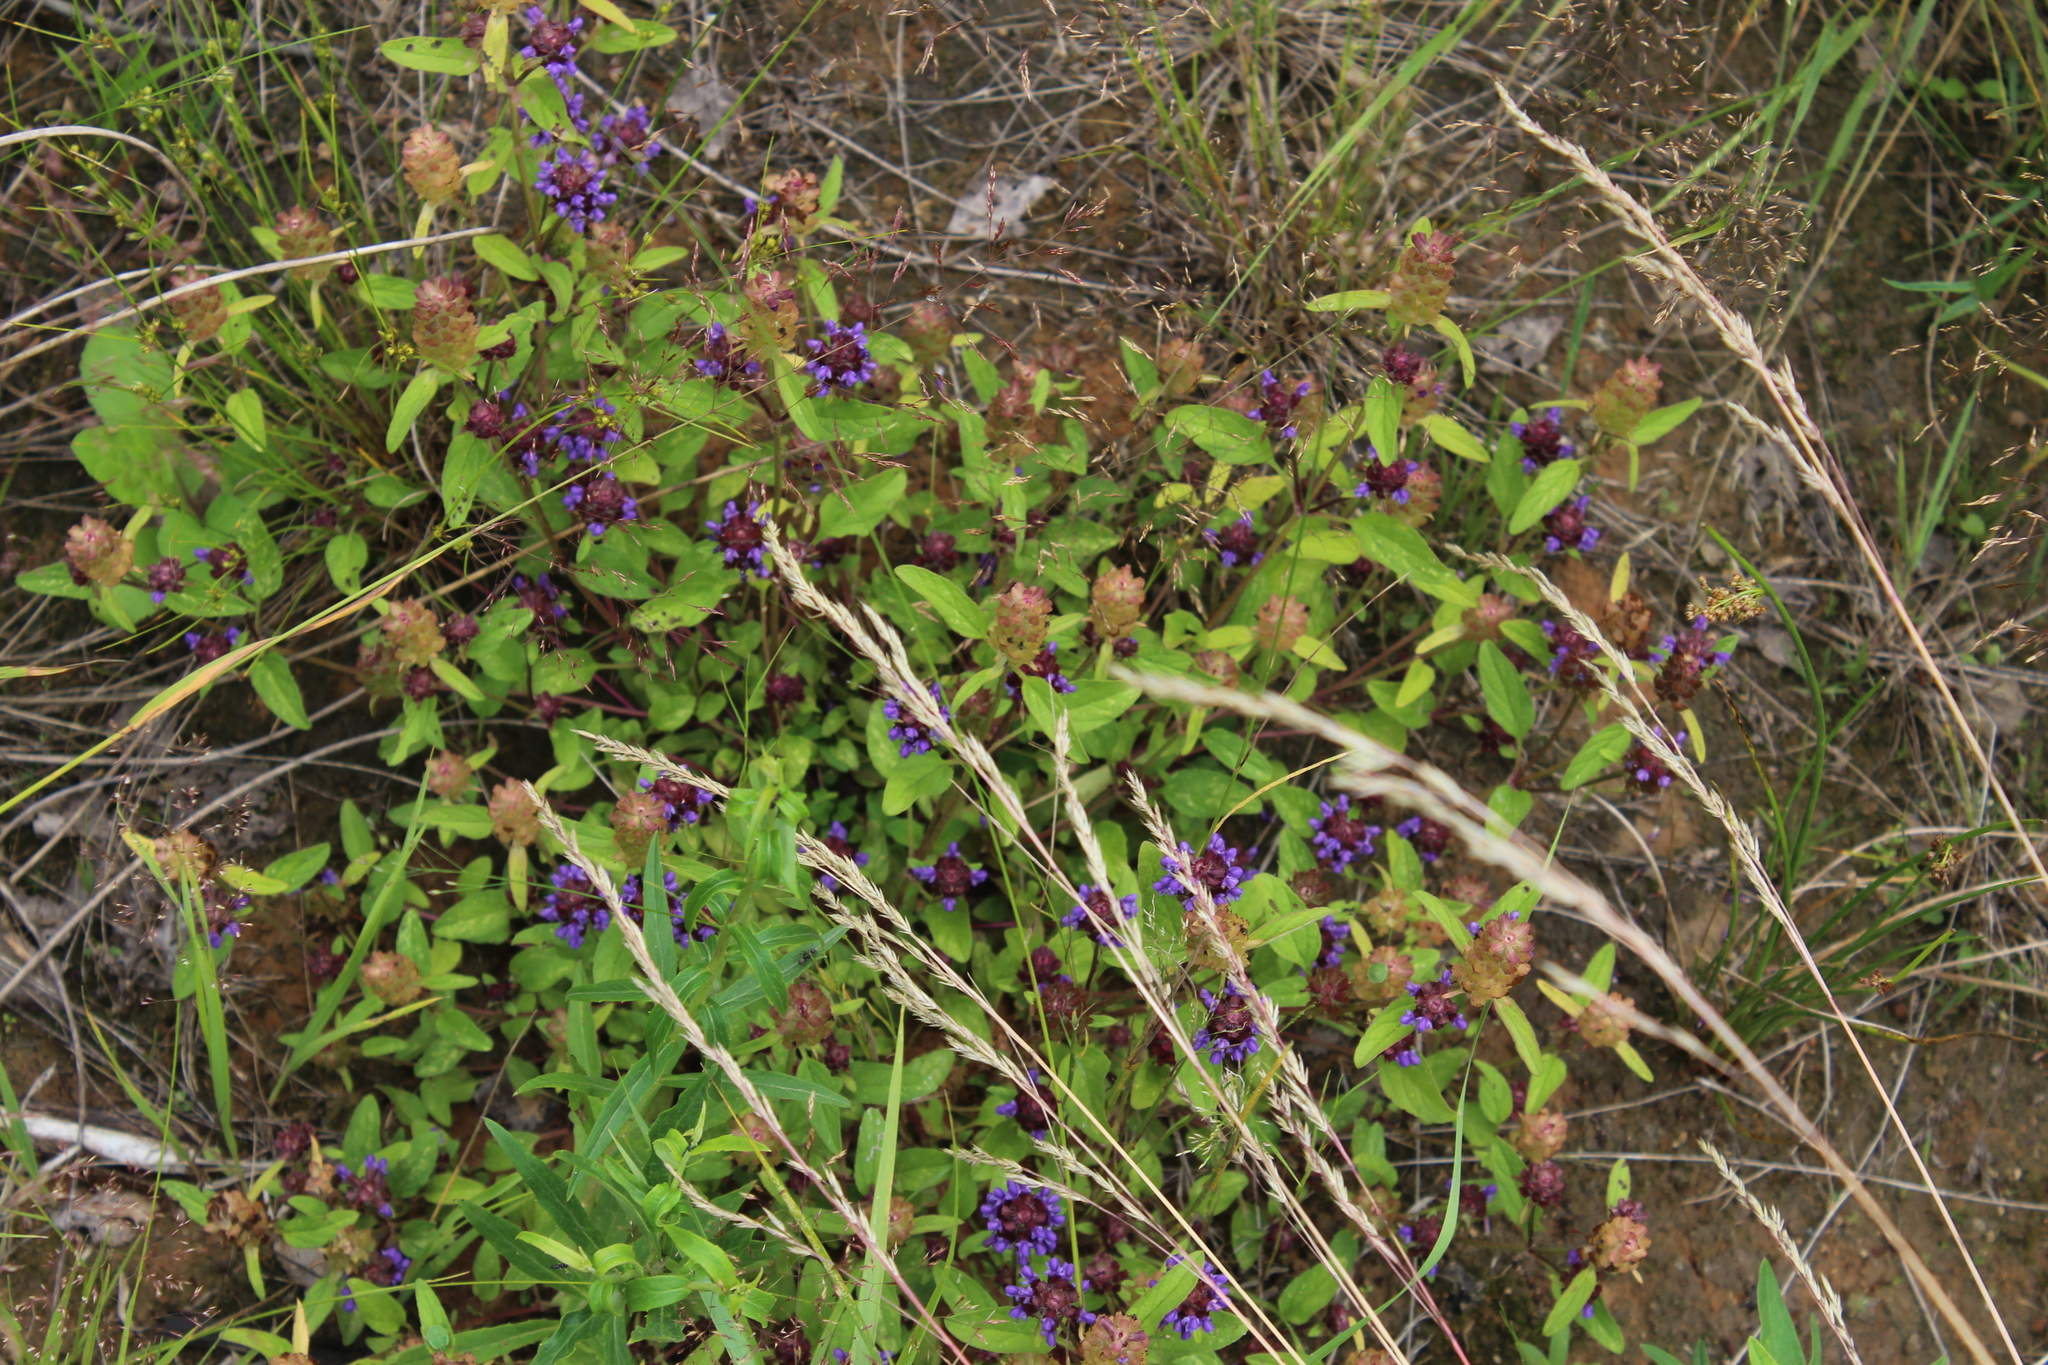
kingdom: Plantae
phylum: Tracheophyta
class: Magnoliopsida
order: Lamiales
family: Lamiaceae
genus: Prunella
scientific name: Prunella vulgaris
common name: Heal-all
